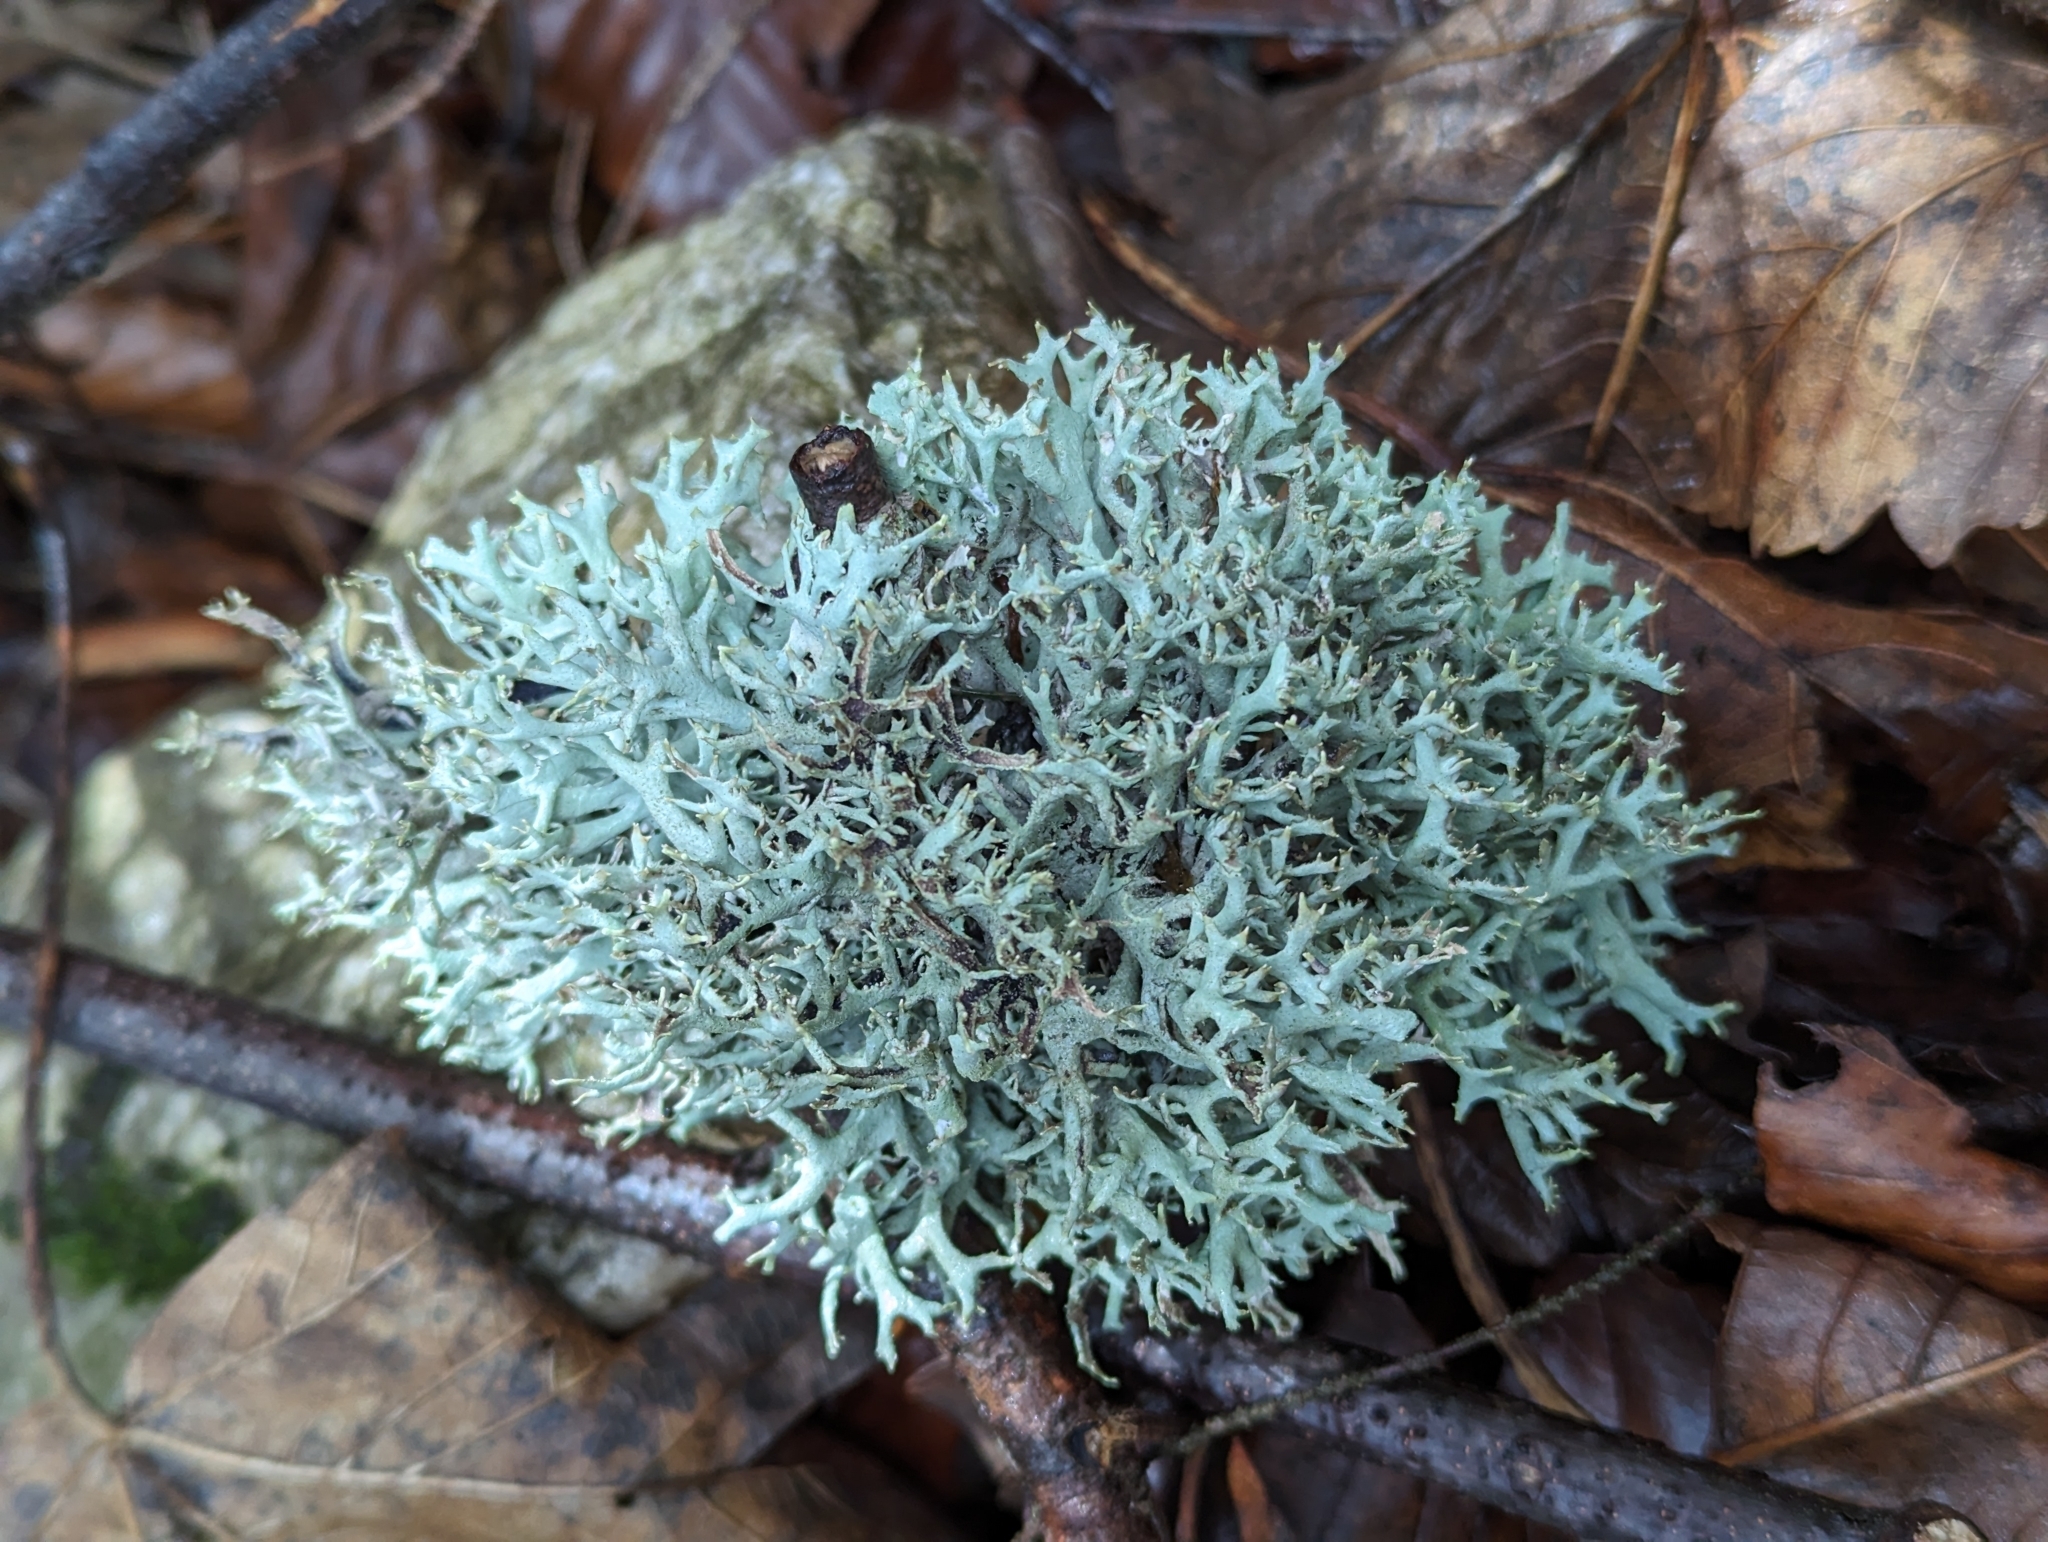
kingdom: Fungi
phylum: Ascomycota
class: Lecanoromycetes
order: Lecanorales
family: Parmeliaceae
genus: Pseudevernia
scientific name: Pseudevernia furfuracea
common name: Tree moss
